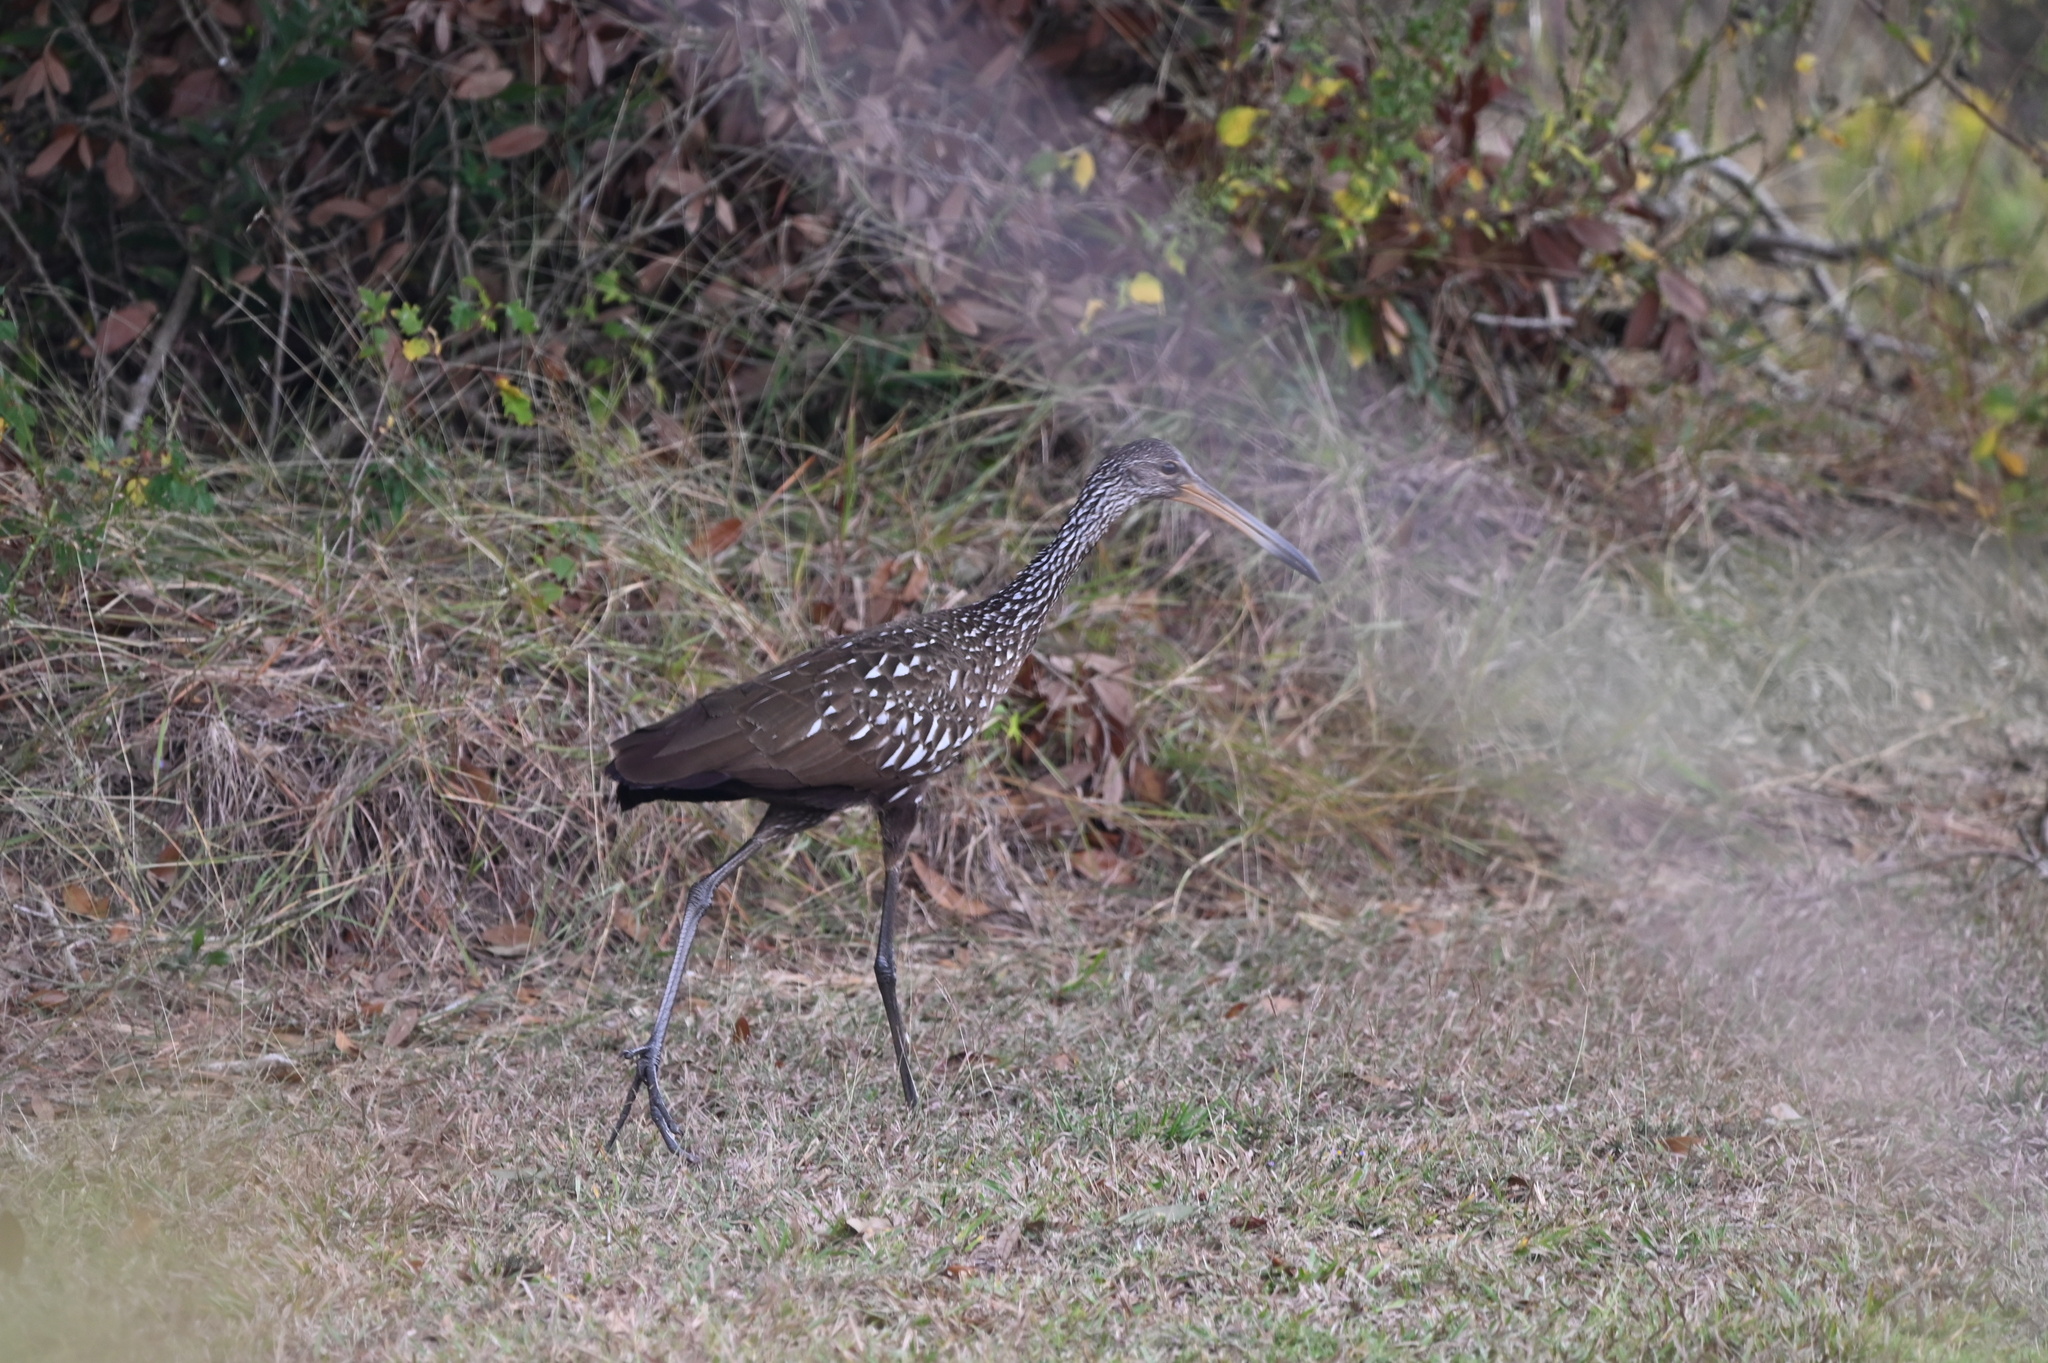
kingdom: Animalia
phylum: Chordata
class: Aves
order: Gruiformes
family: Aramidae
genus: Aramus
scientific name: Aramus guarauna
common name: Limpkin
